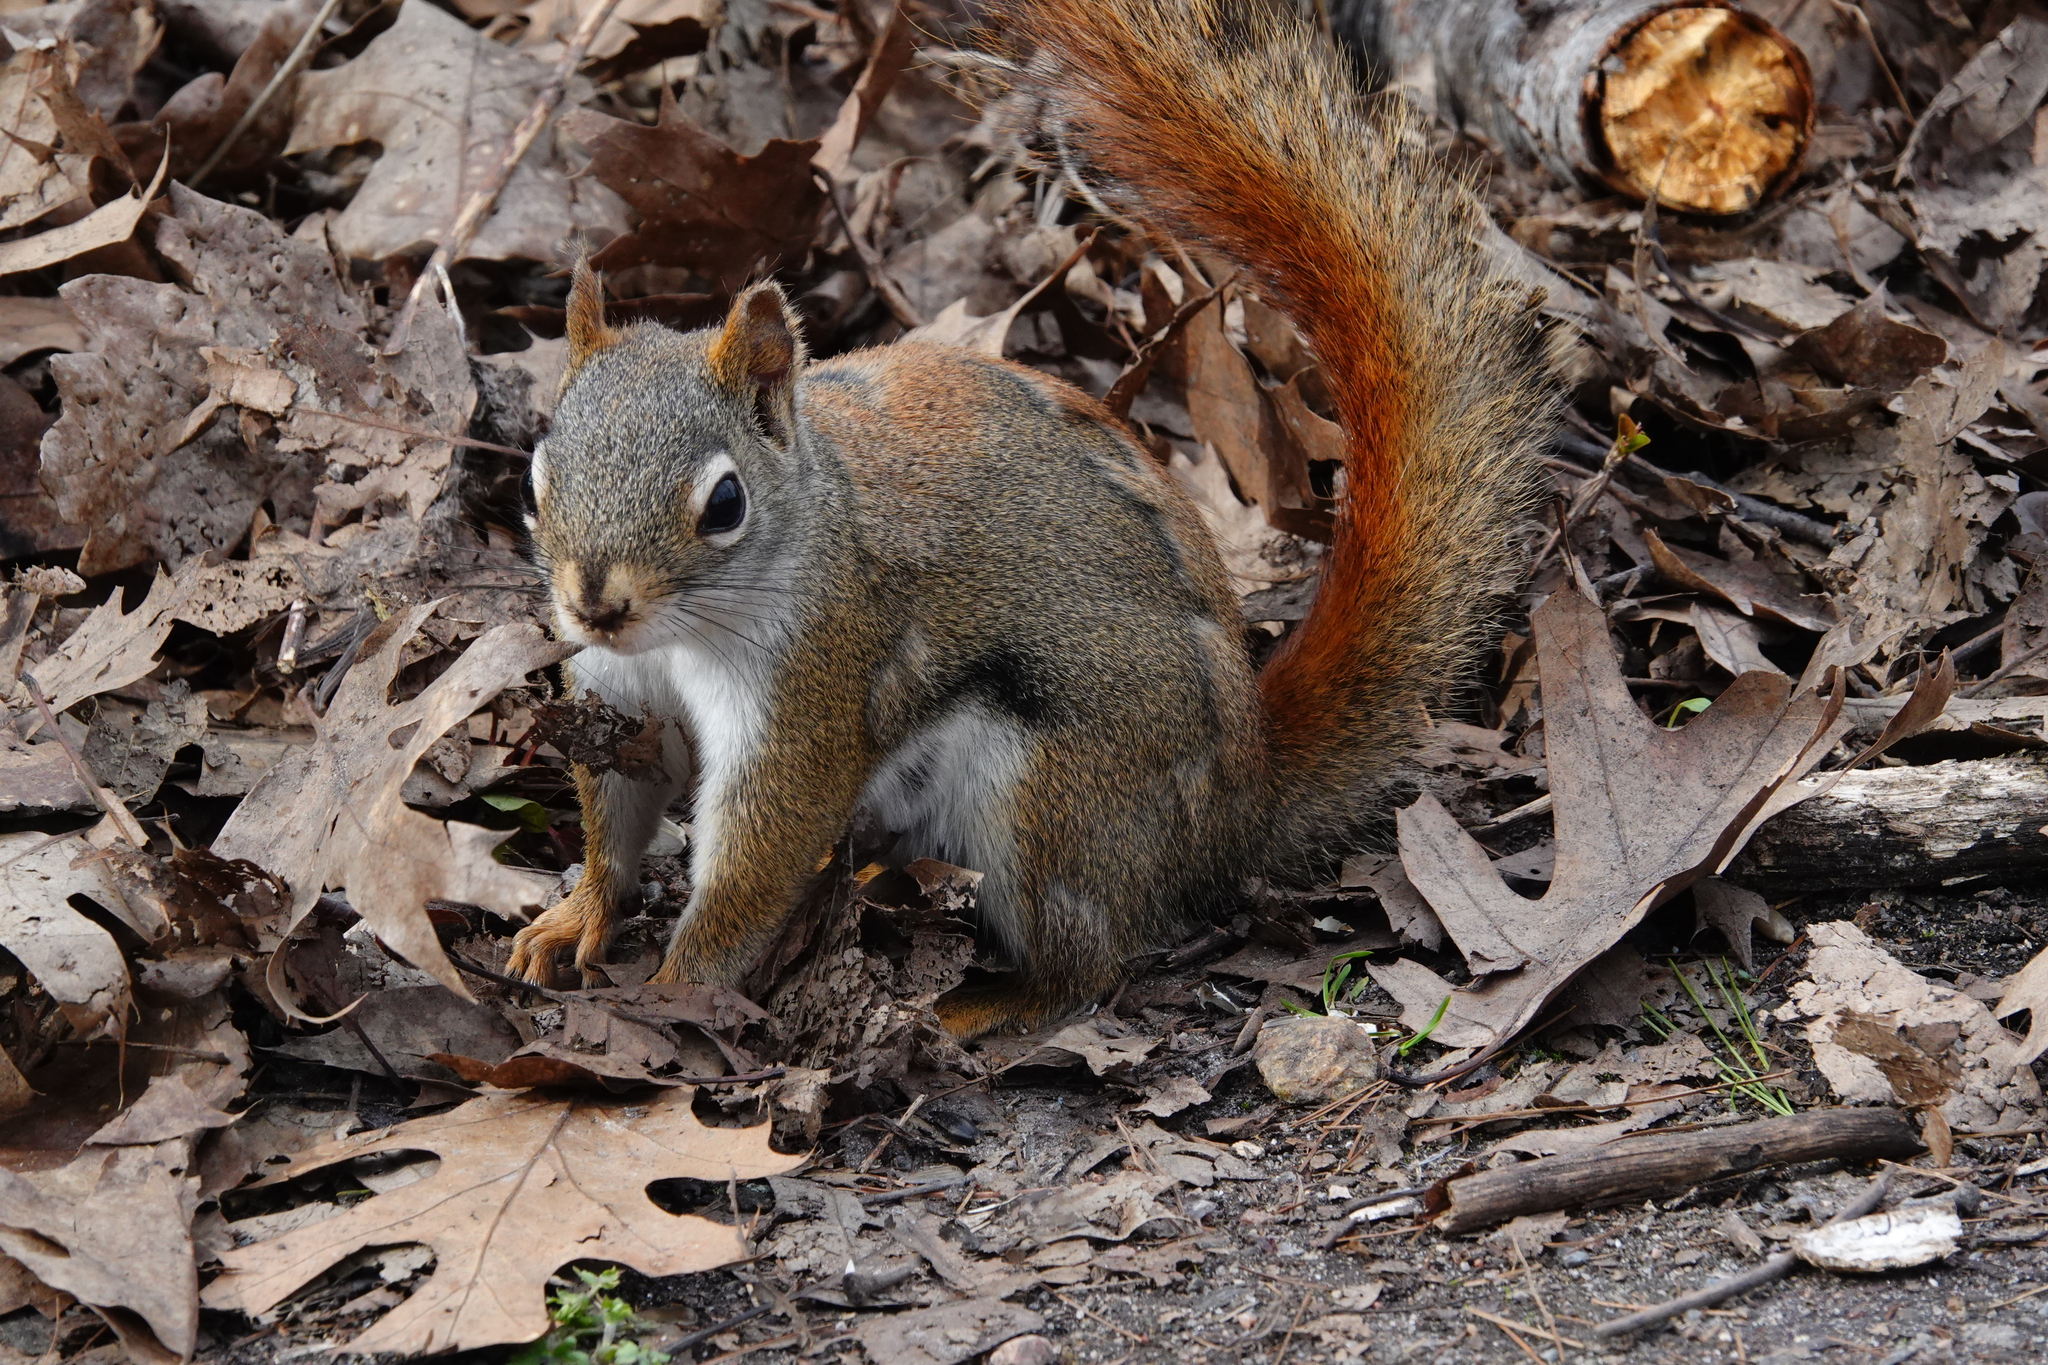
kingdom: Animalia
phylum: Chordata
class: Mammalia
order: Rodentia
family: Sciuridae
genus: Tamiasciurus
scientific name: Tamiasciurus hudsonicus
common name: Red squirrel
